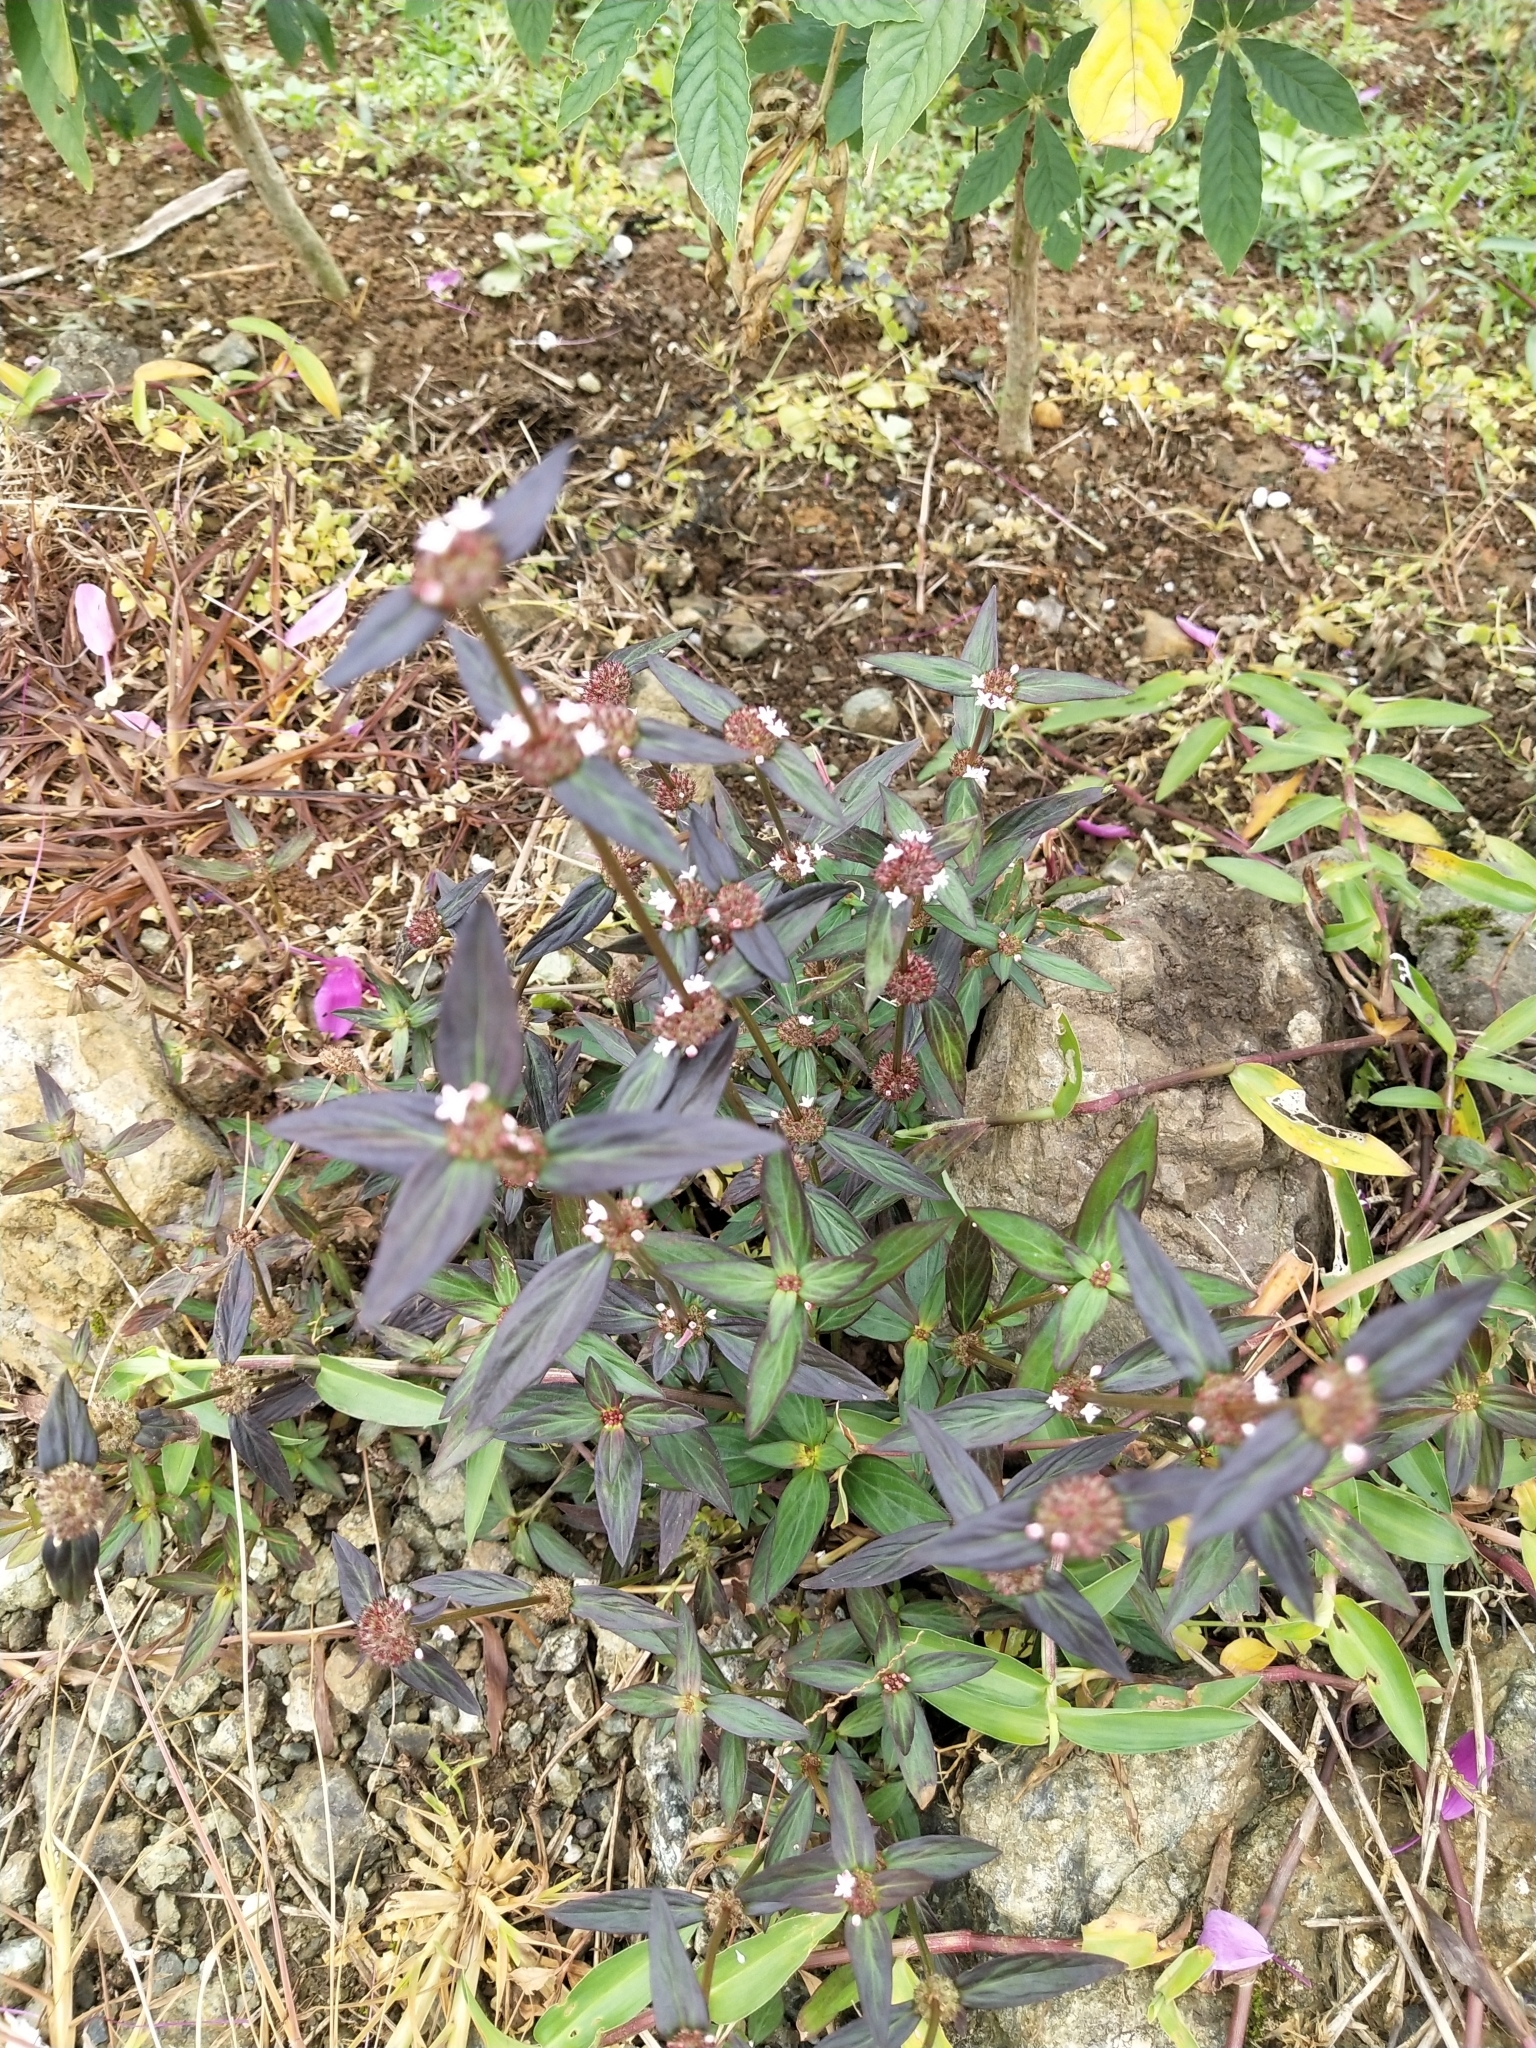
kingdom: Plantae
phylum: Tracheophyta
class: Magnoliopsida
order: Gentianales
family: Rubiaceae
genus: Spermacoce
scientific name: Spermacoce remota
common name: Woodland false buttonweed
